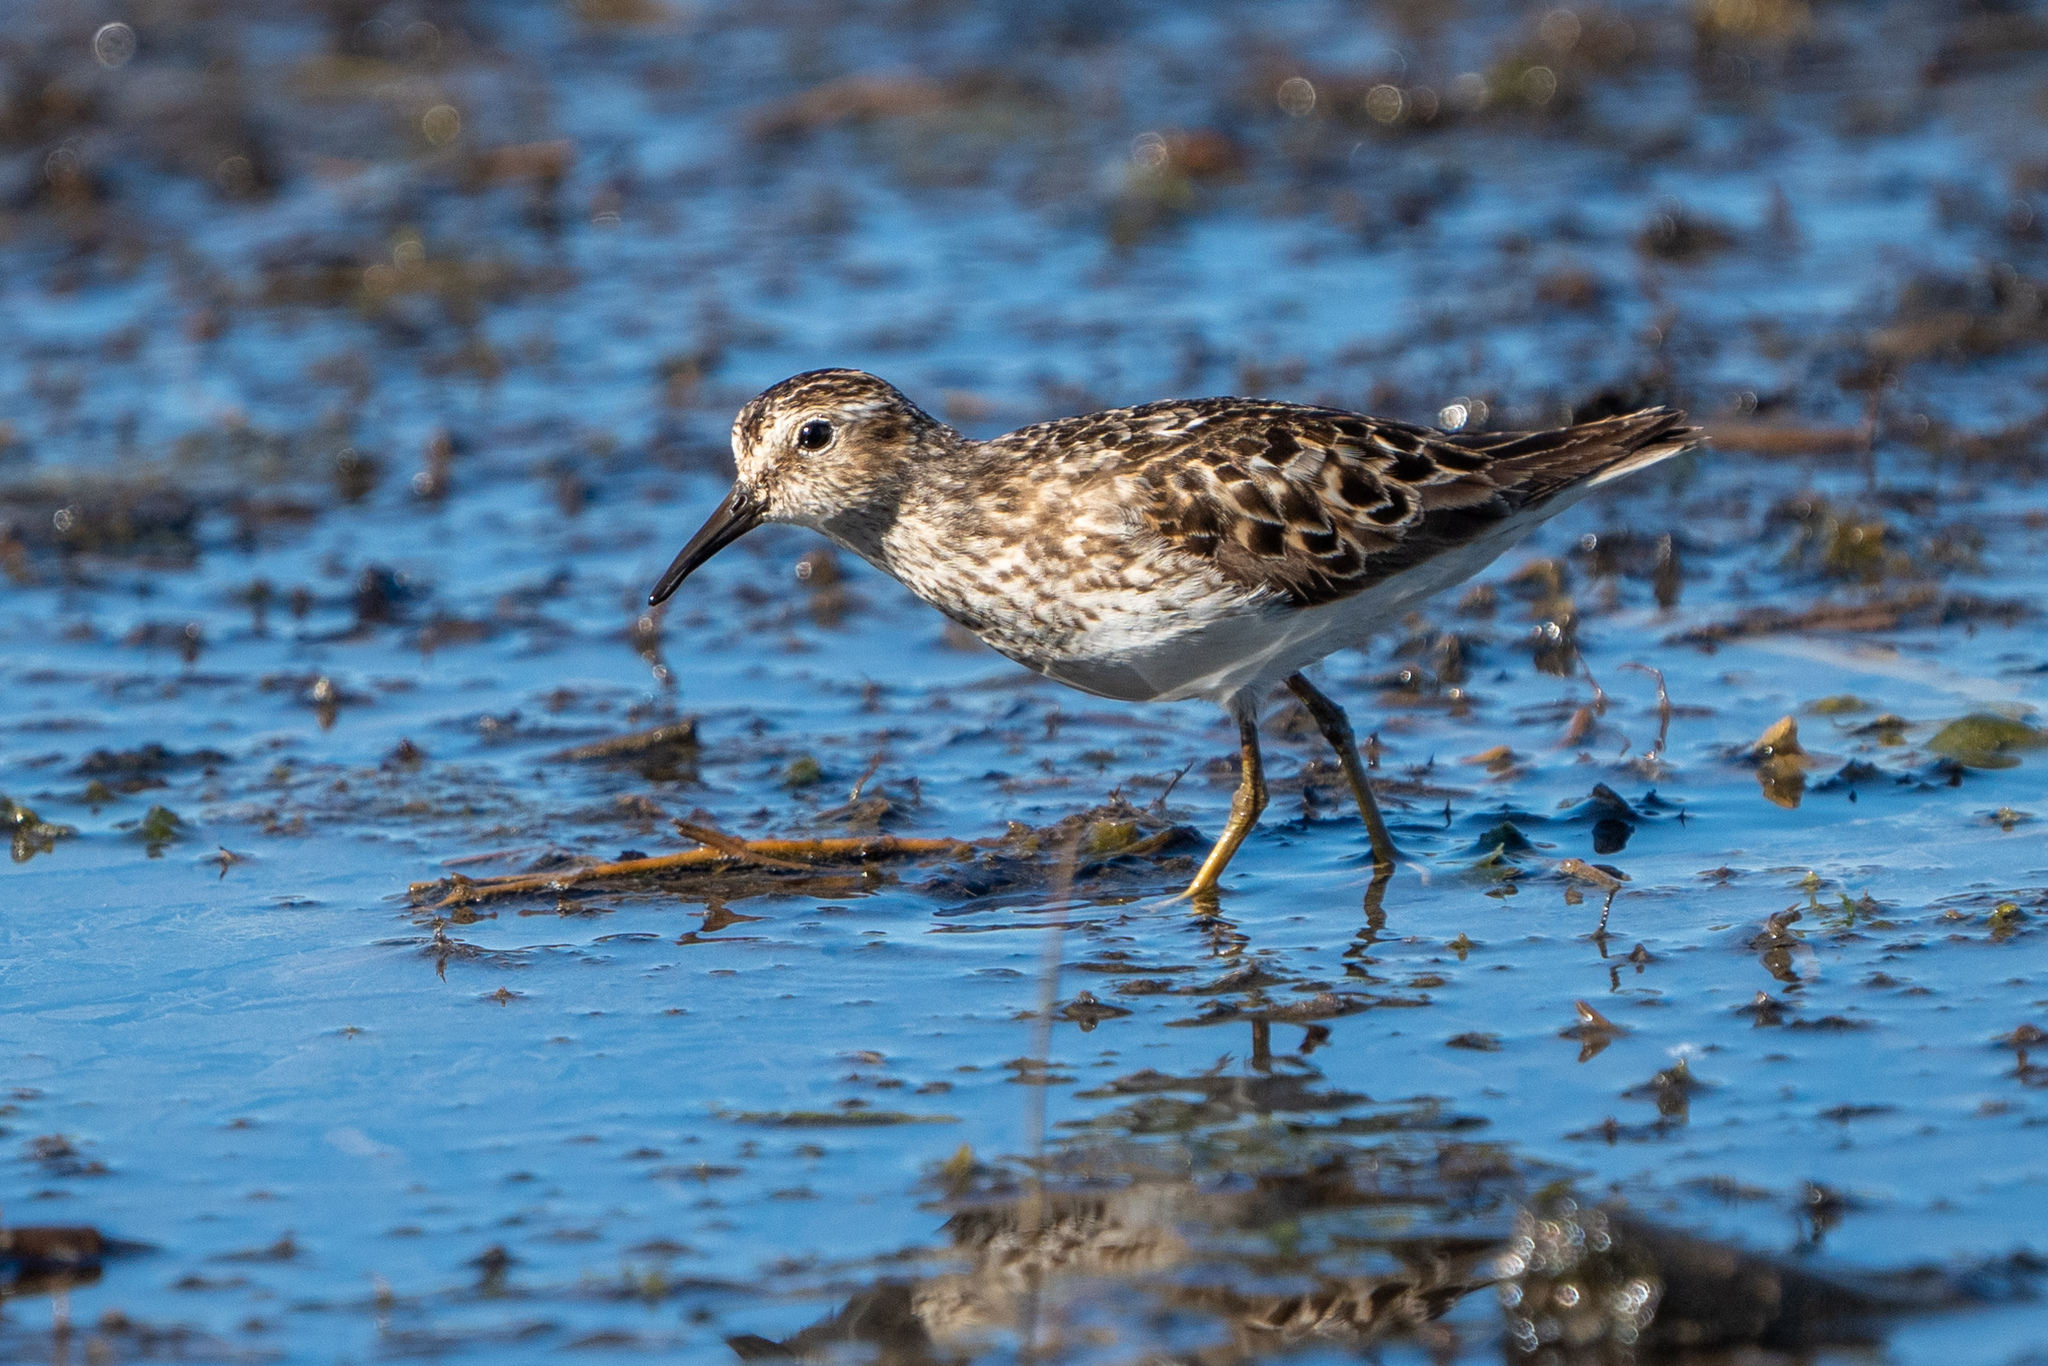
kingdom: Animalia
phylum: Chordata
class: Aves
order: Charadriiformes
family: Scolopacidae
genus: Calidris
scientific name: Calidris minutilla
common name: Least sandpiper
